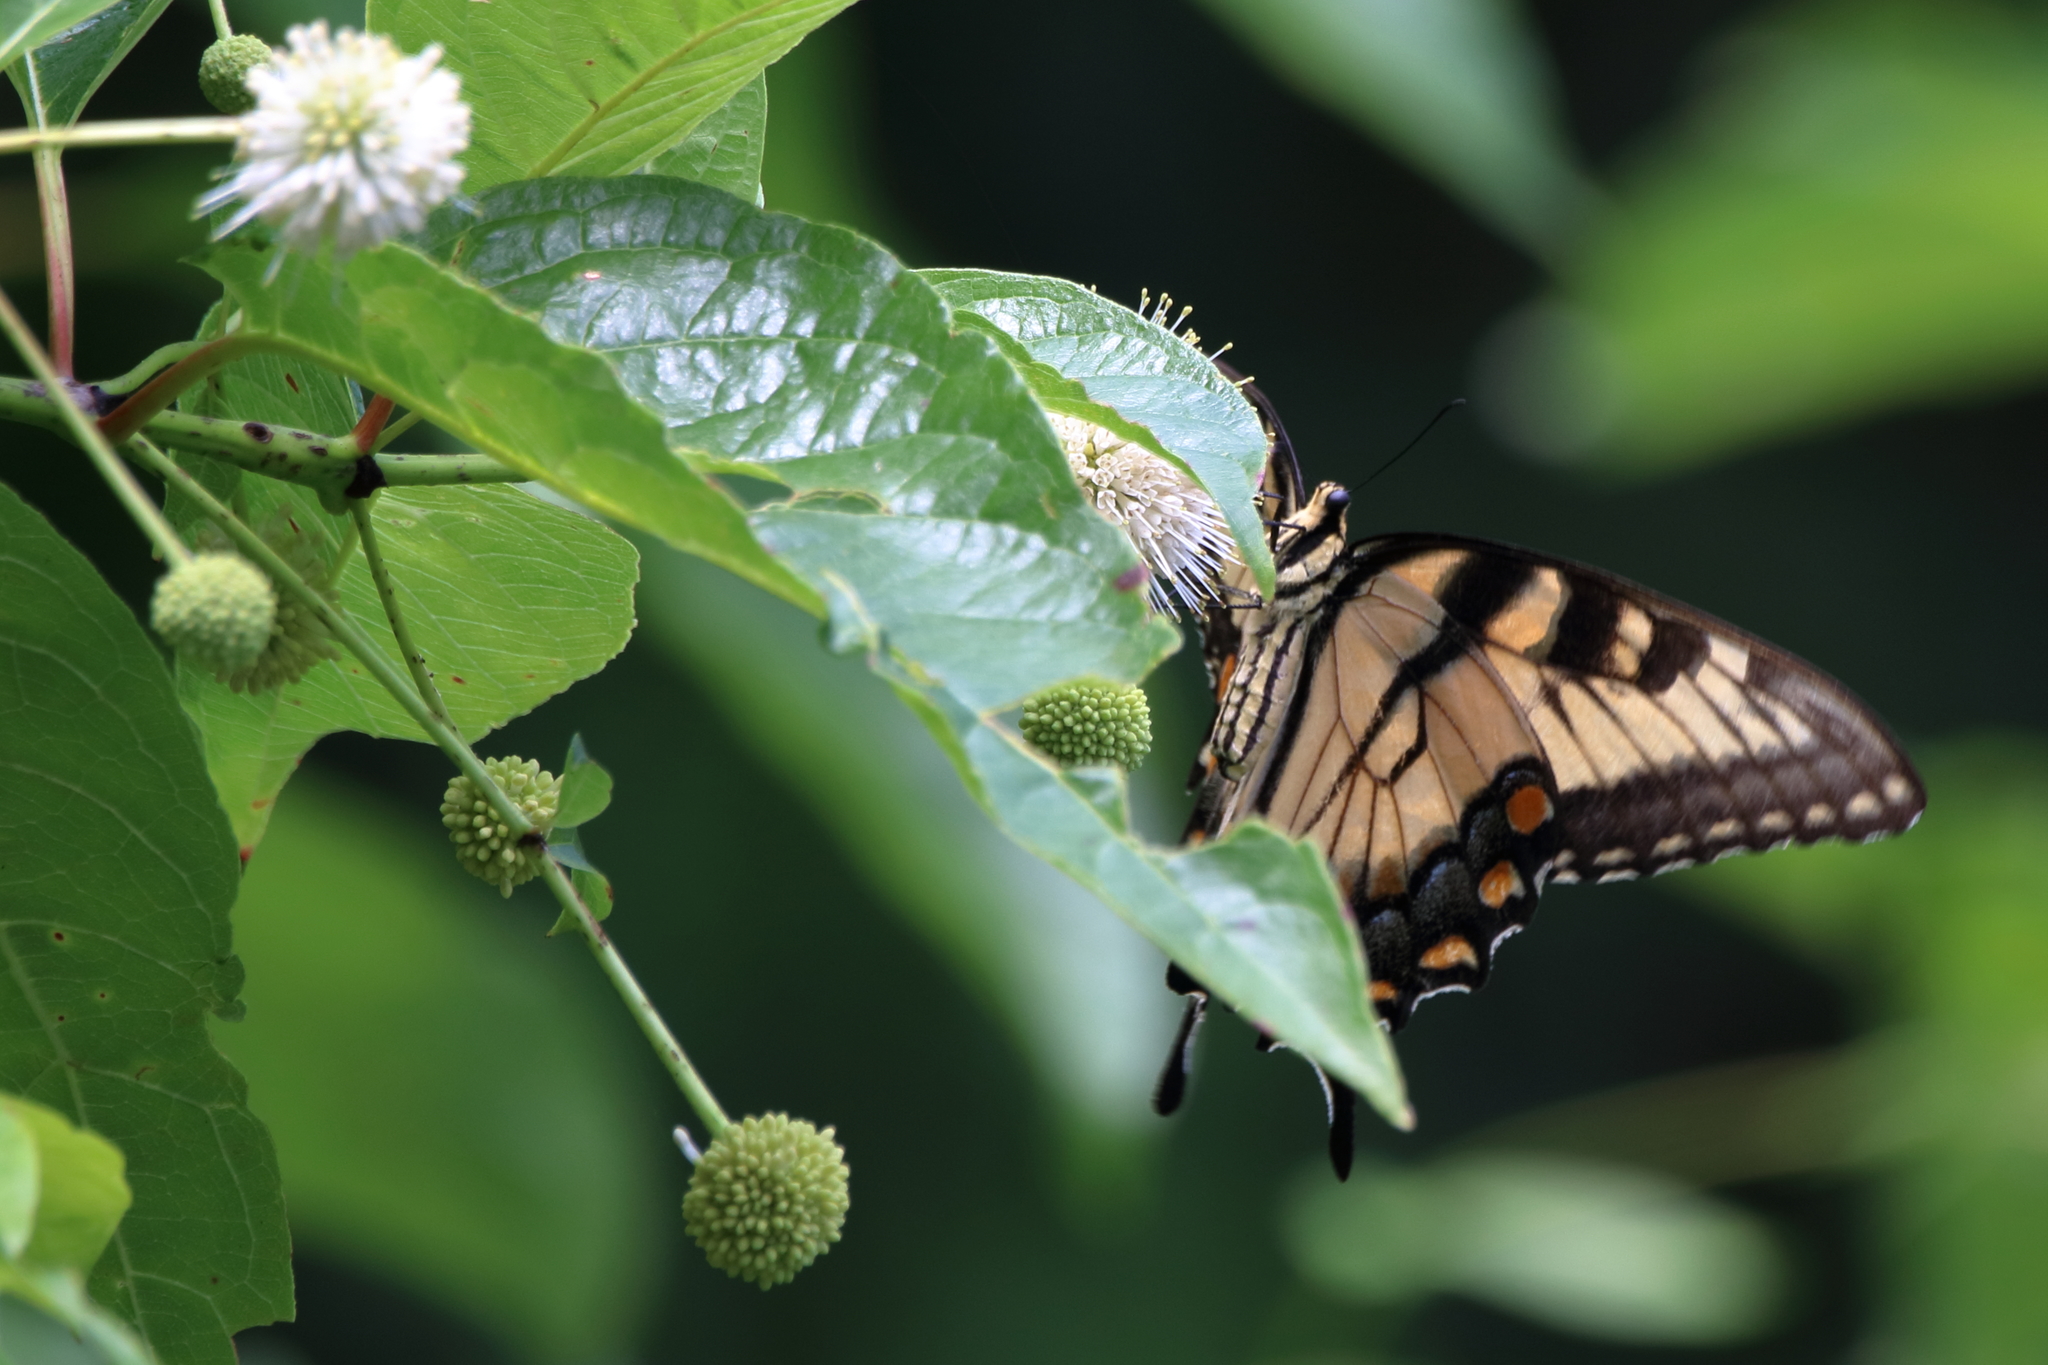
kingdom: Animalia
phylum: Arthropoda
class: Insecta
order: Lepidoptera
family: Papilionidae
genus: Papilio
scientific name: Papilio glaucus
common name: Tiger swallowtail
